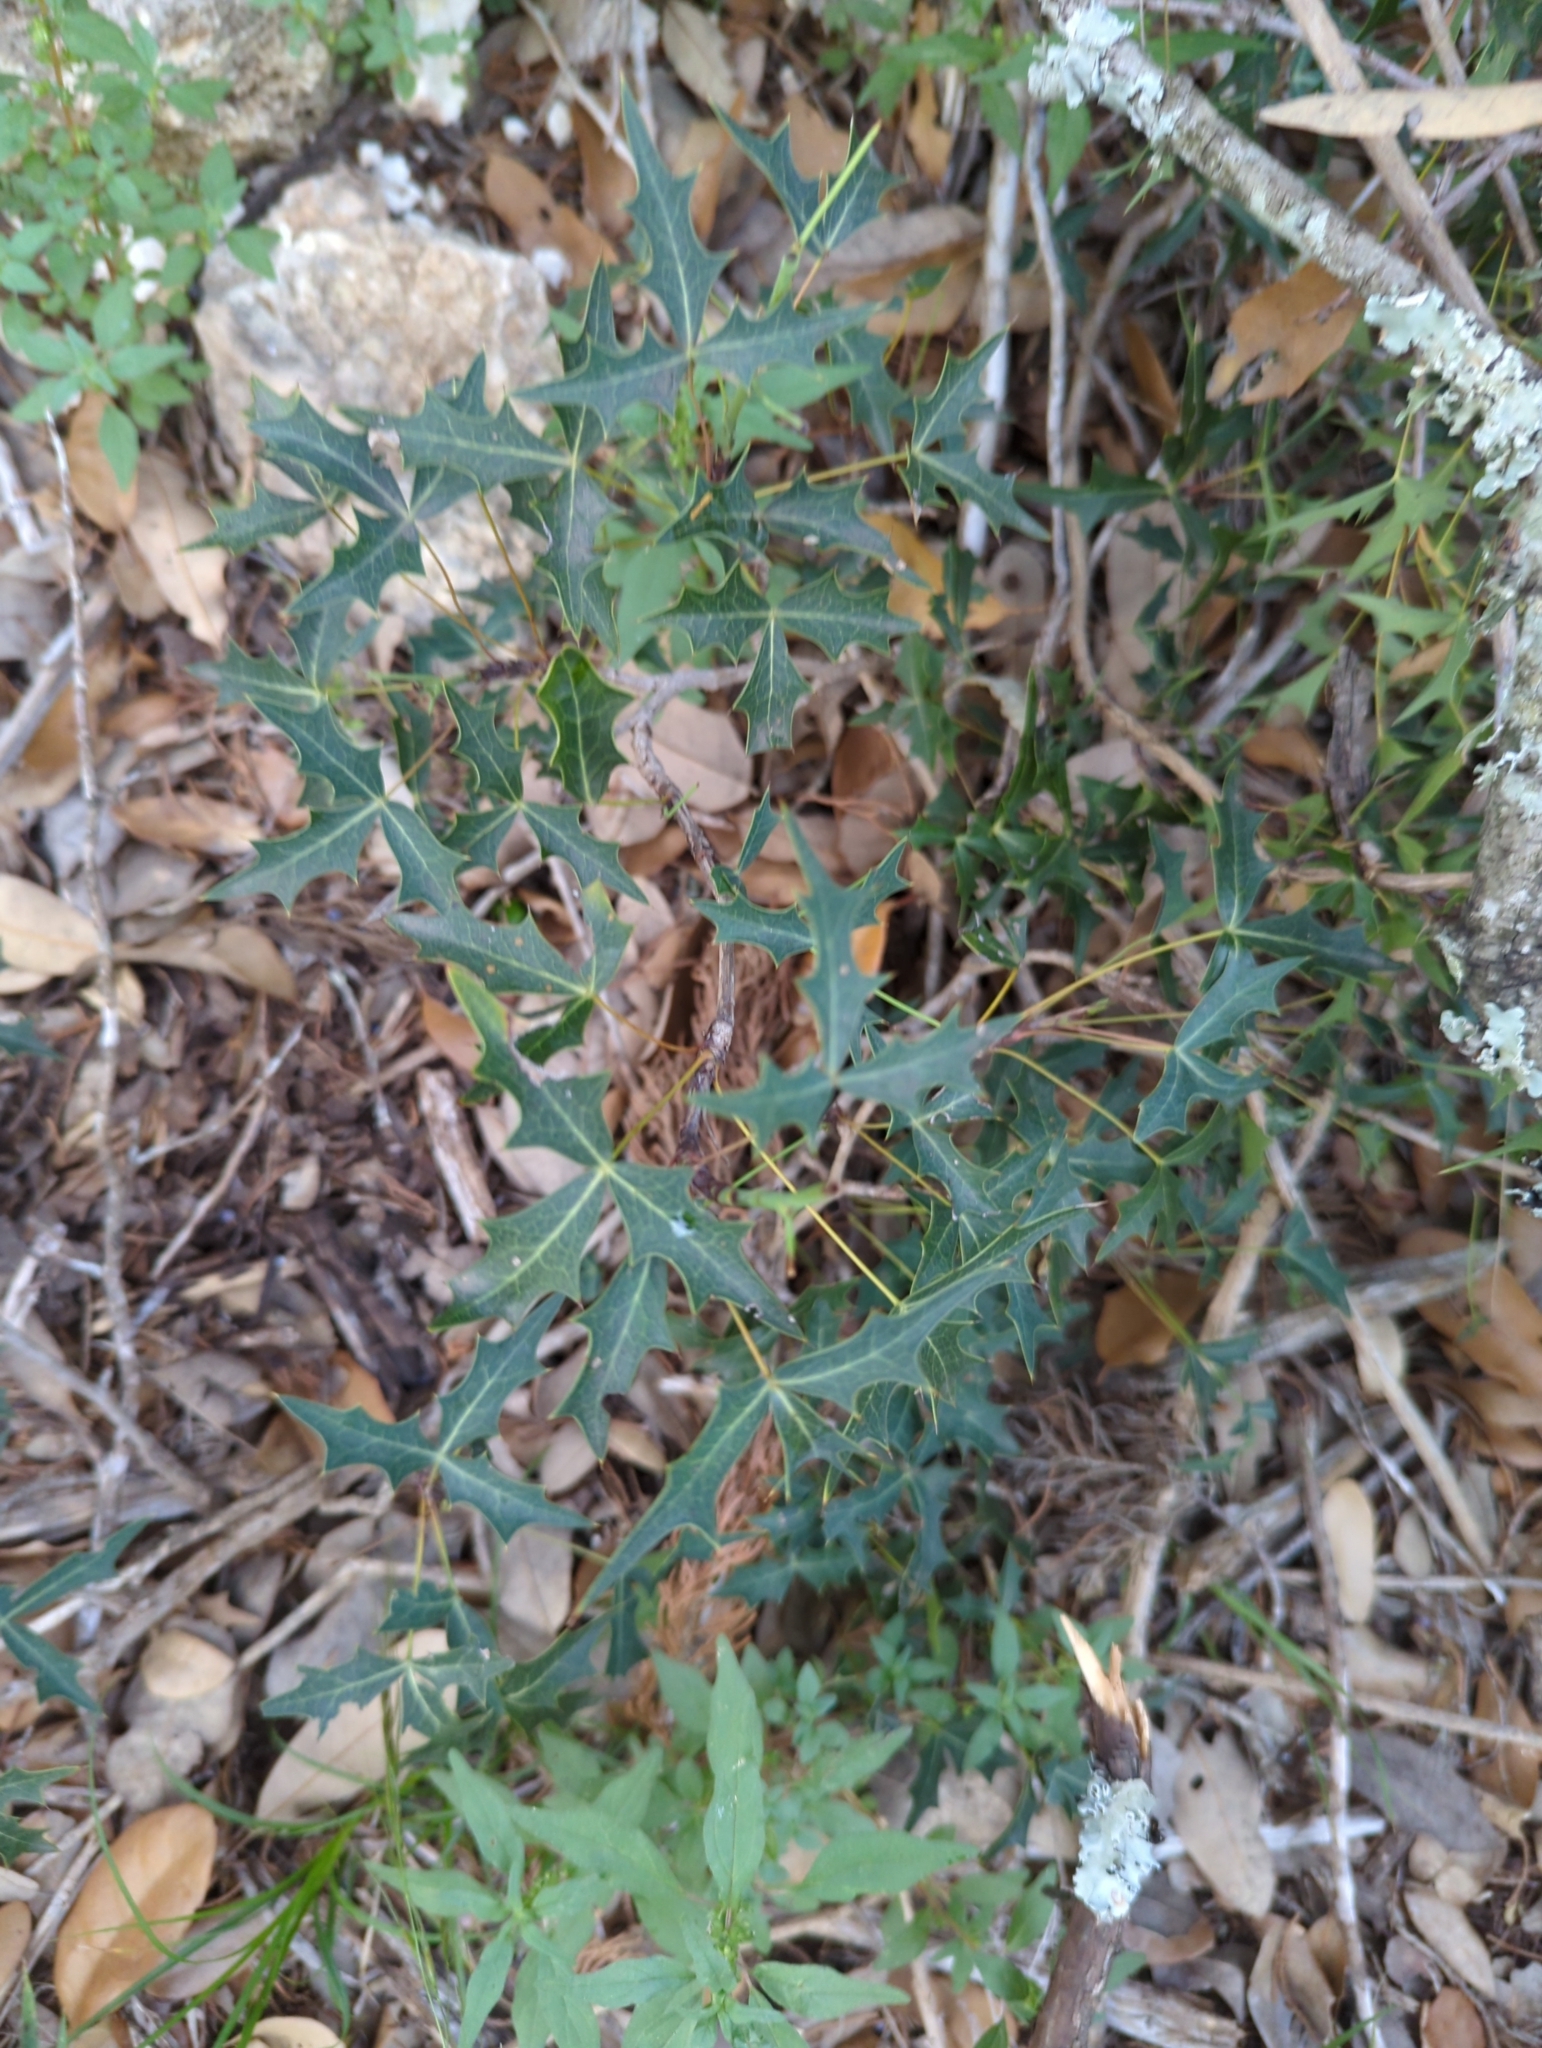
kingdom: Plantae
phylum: Tracheophyta
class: Magnoliopsida
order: Ranunculales
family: Berberidaceae
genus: Alloberberis
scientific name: Alloberberis trifoliolata
